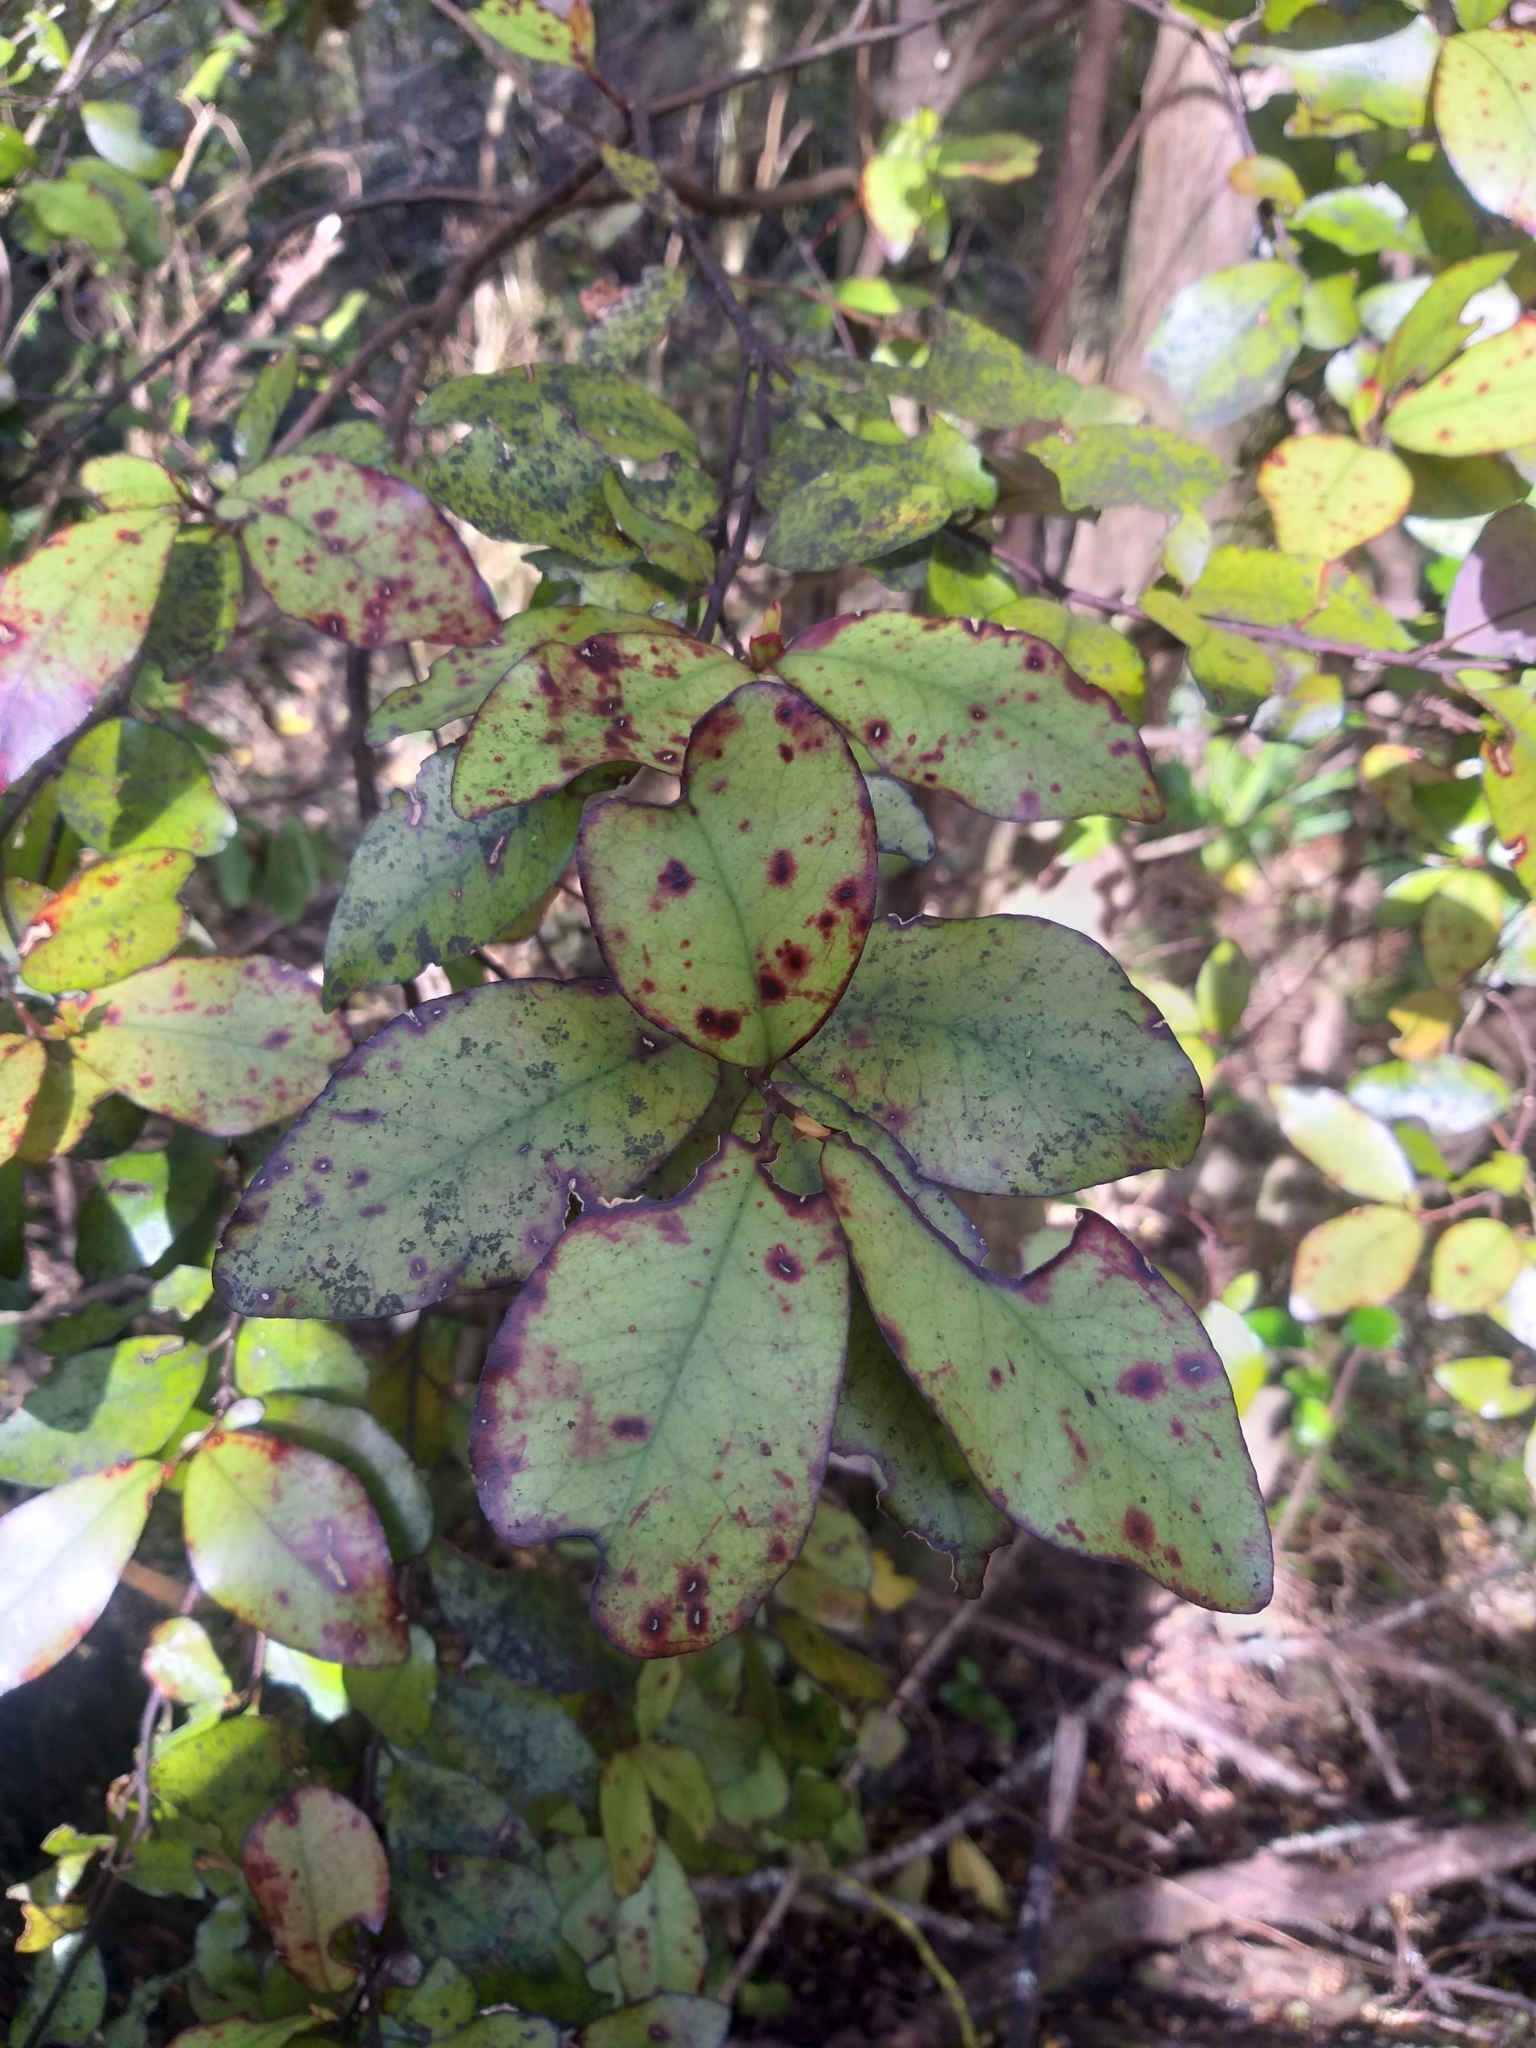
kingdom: Plantae
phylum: Tracheophyta
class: Magnoliopsida
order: Canellales
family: Winteraceae
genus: Pseudowintera
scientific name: Pseudowintera colorata
